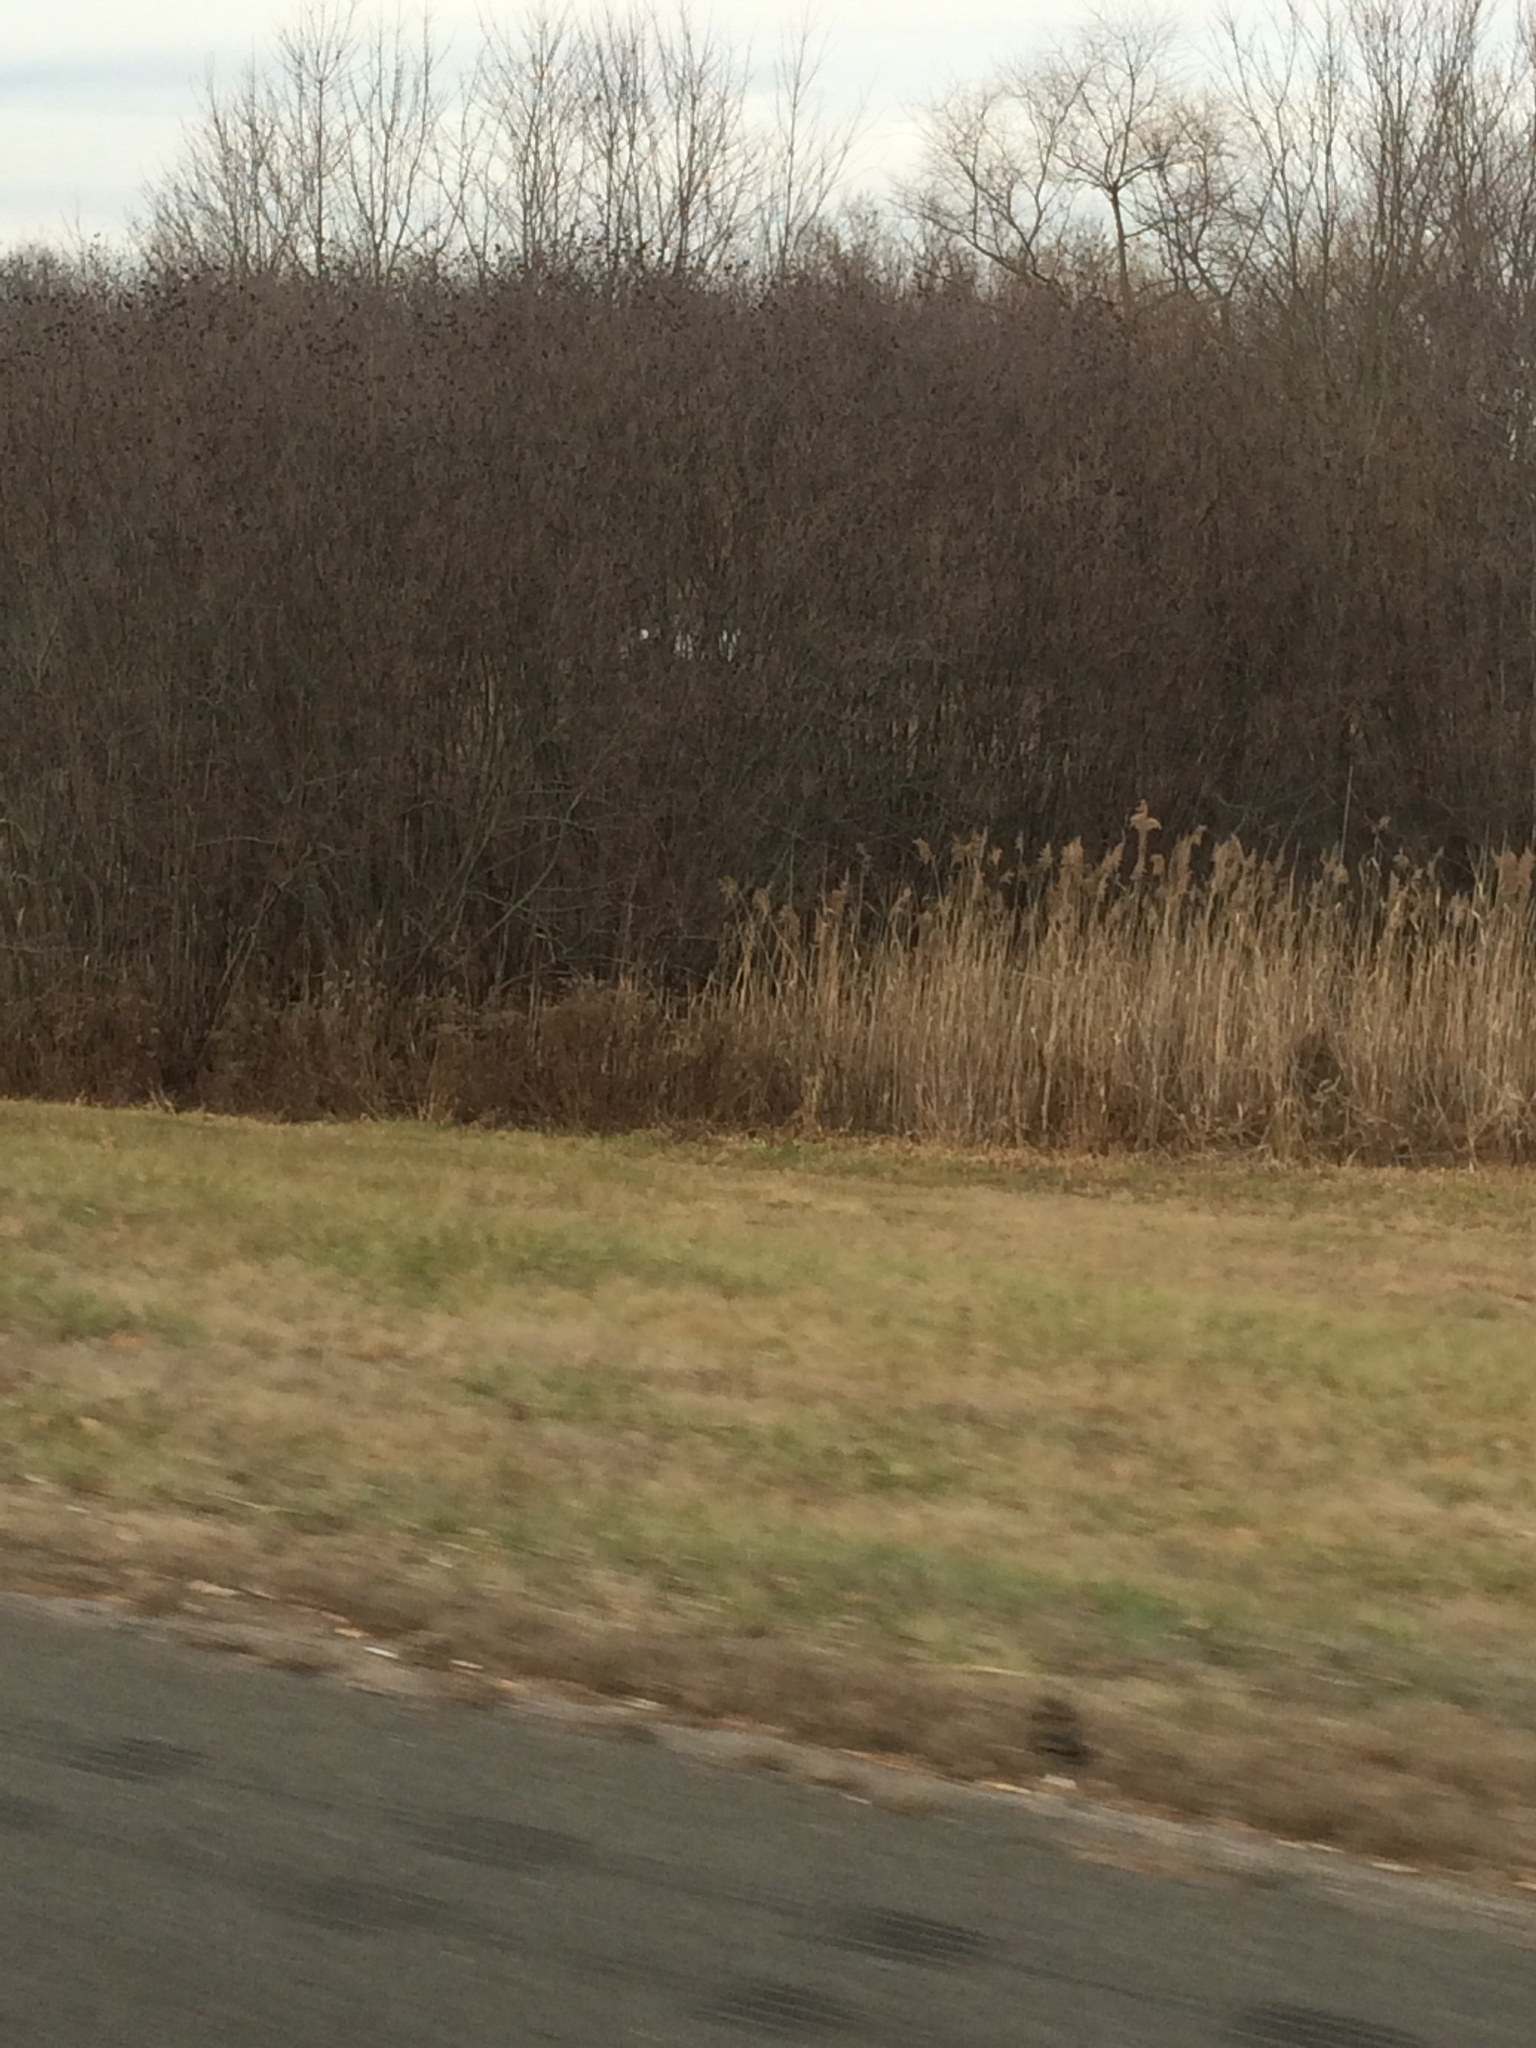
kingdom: Plantae
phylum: Tracheophyta
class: Liliopsida
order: Poales
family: Poaceae
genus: Phragmites
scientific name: Phragmites australis
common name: Common reed
